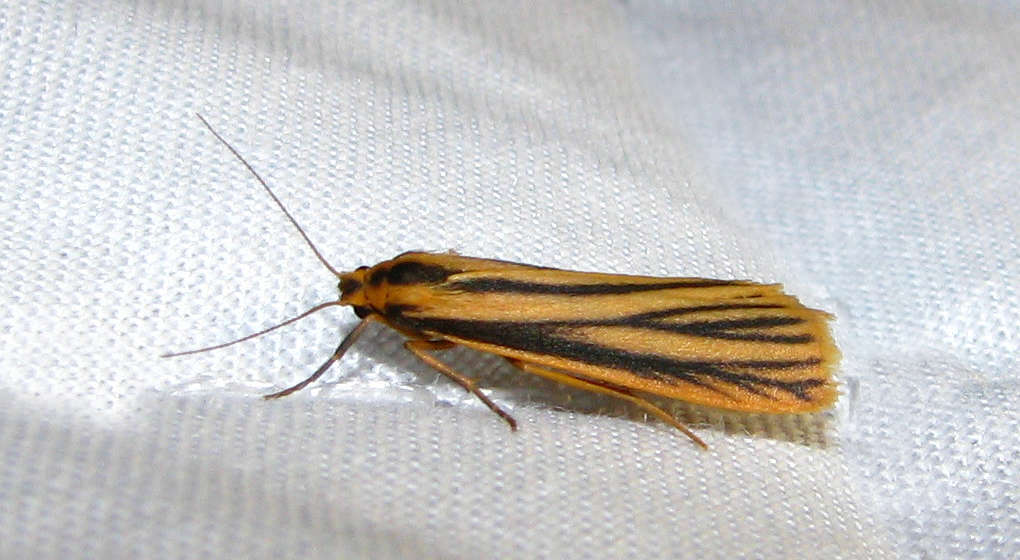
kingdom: Animalia
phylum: Arthropoda
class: Insecta
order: Lepidoptera
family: Erebidae
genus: Phaeophlebosia
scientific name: Phaeophlebosia furcifera
